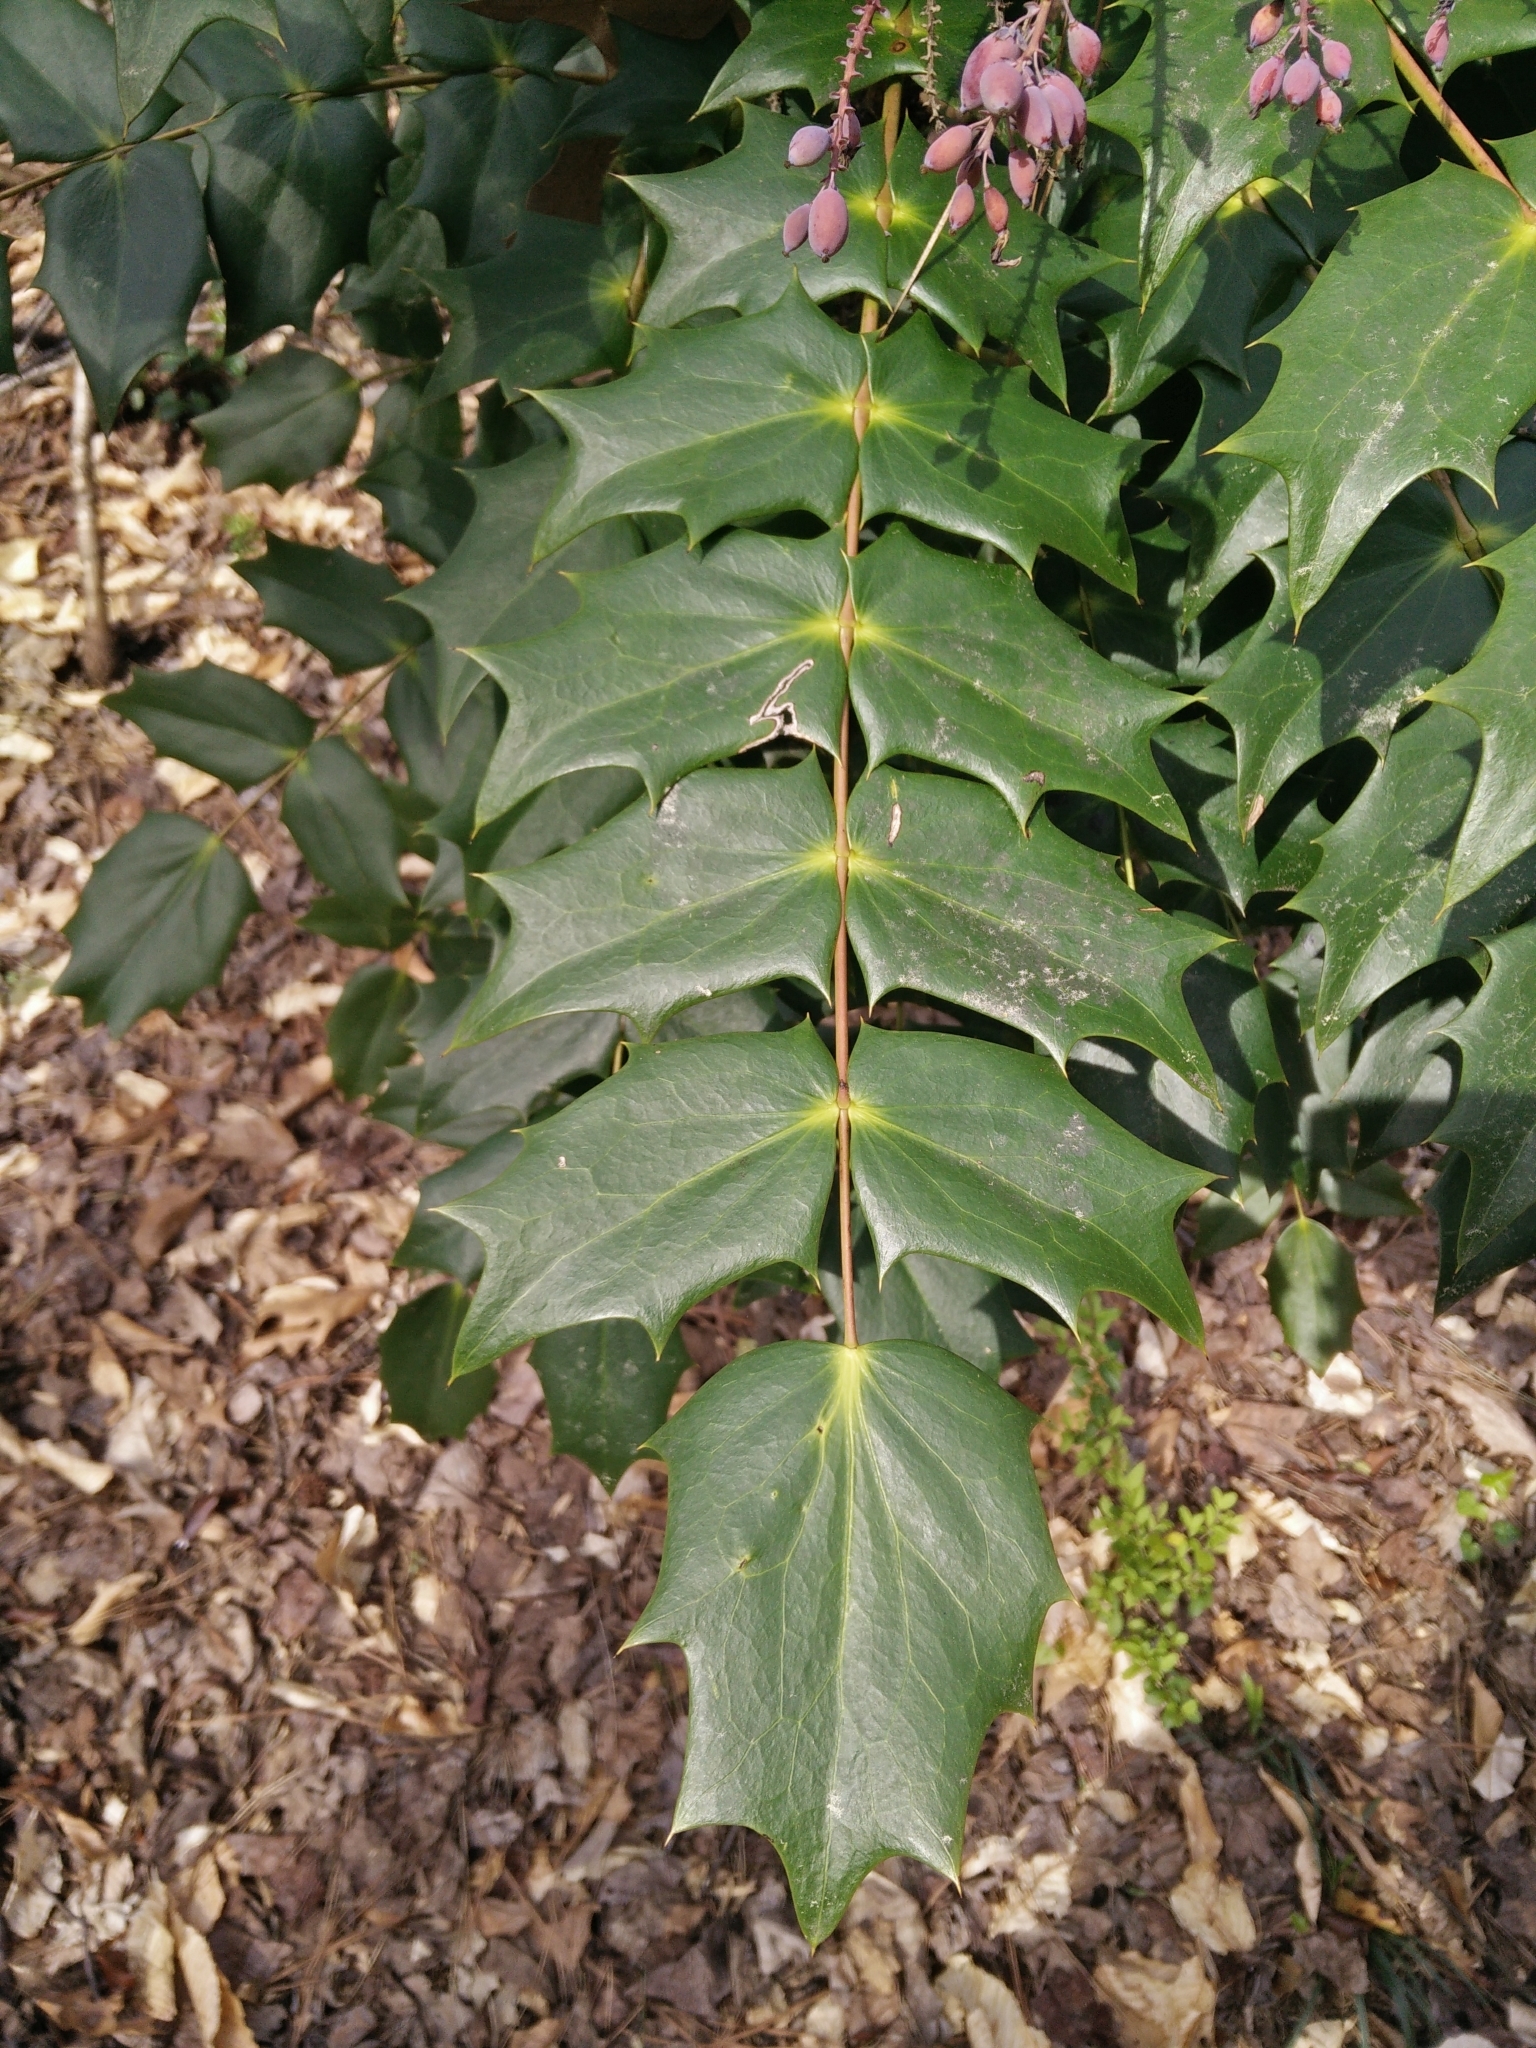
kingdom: Plantae
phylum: Tracheophyta
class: Magnoliopsida
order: Ranunculales
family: Berberidaceae
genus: Mahonia
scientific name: Mahonia bealei
